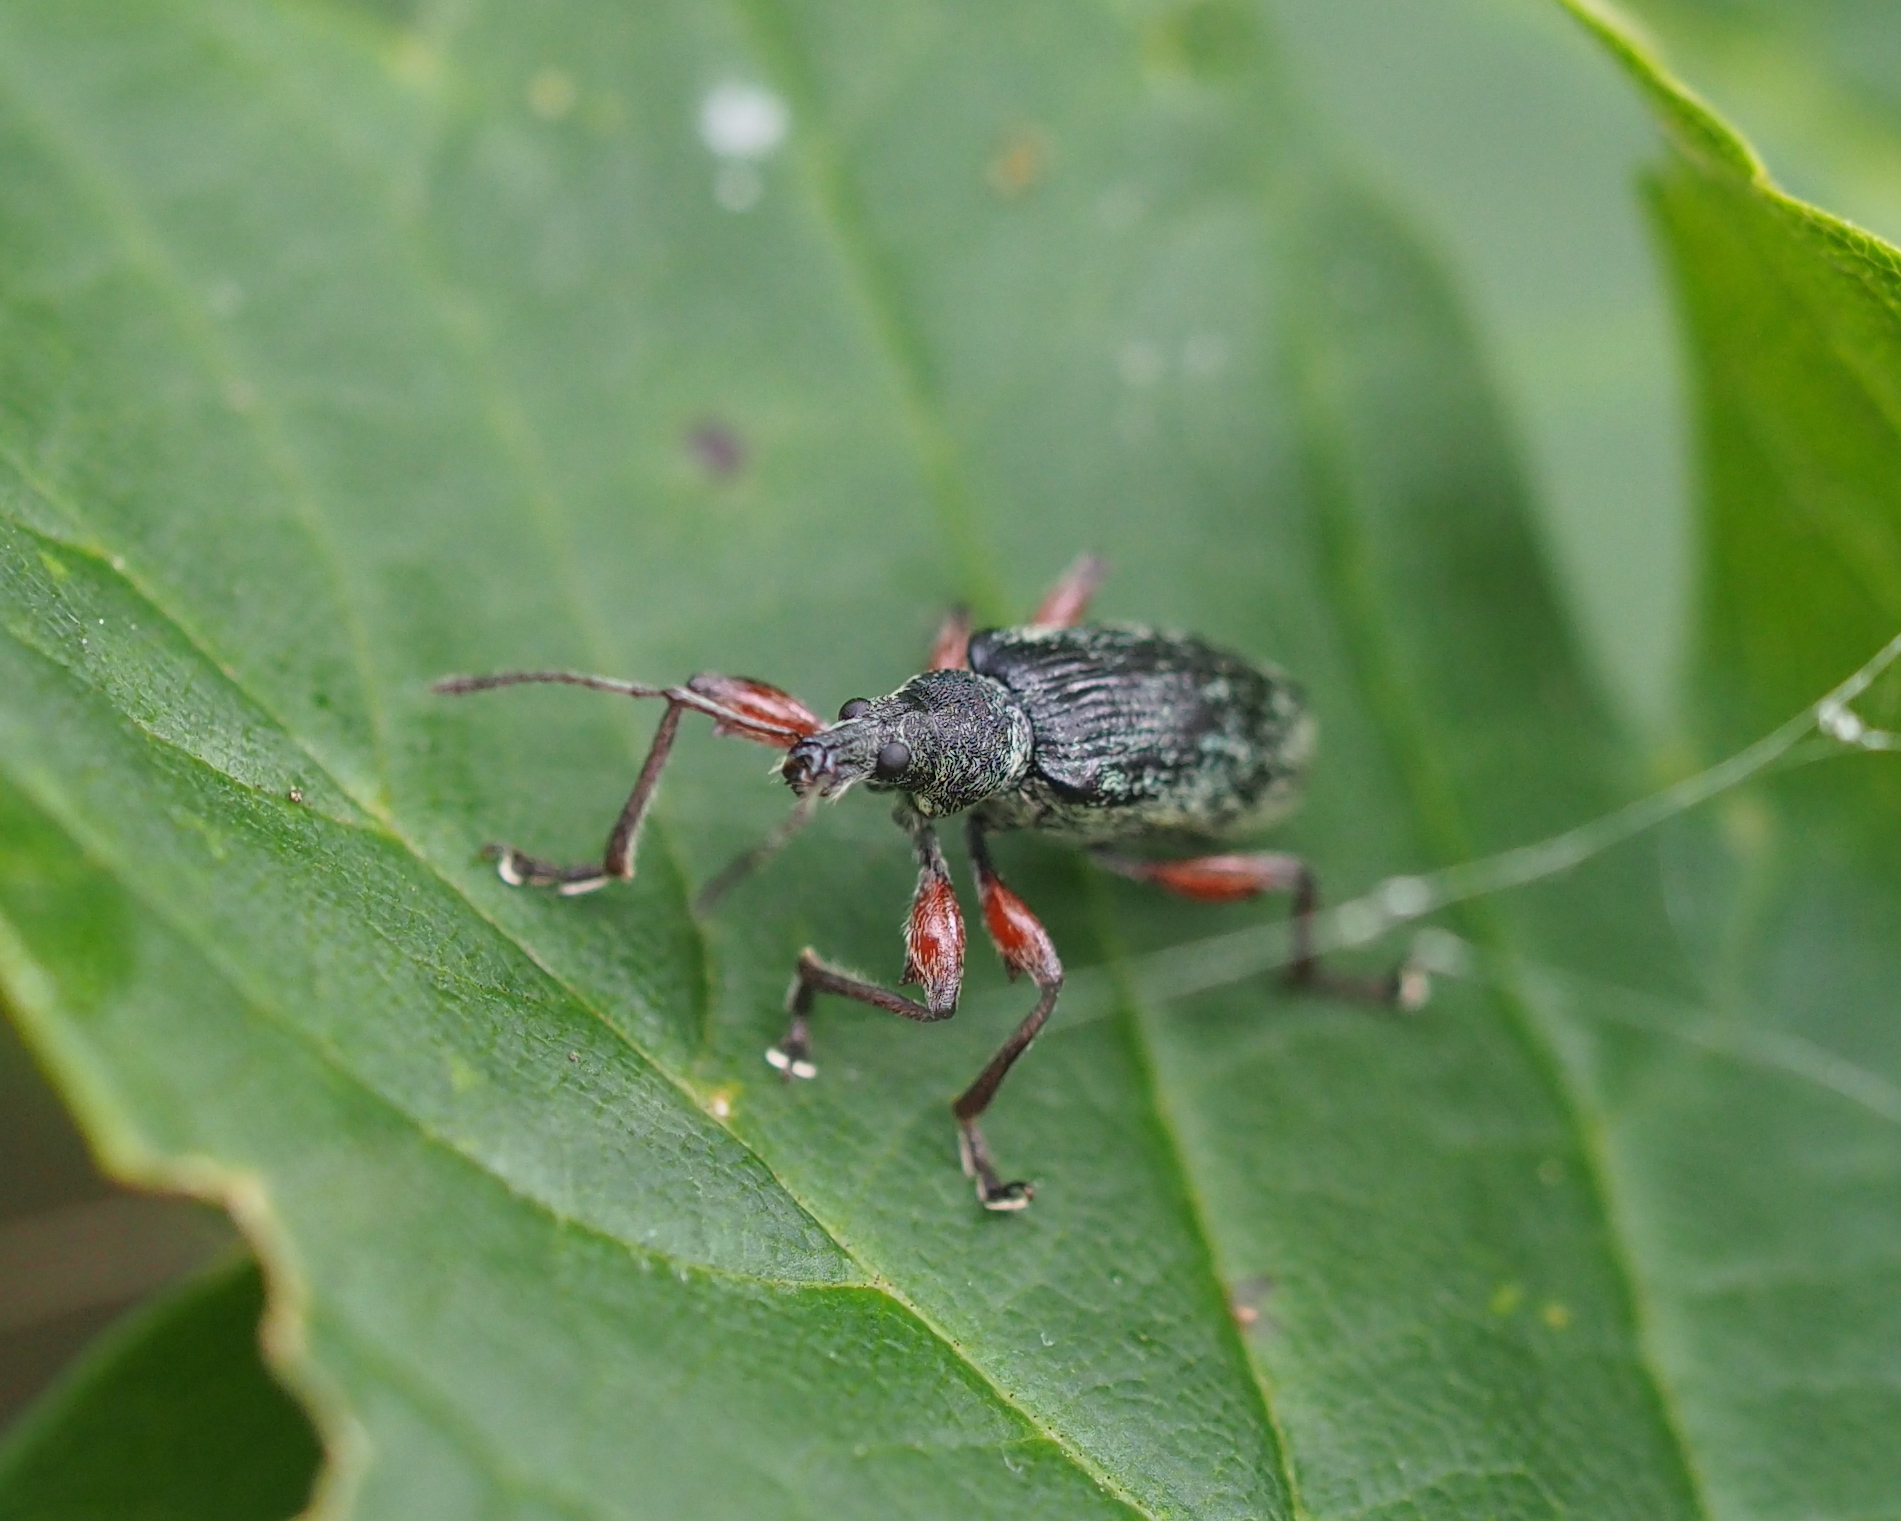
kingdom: Animalia
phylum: Arthropoda
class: Insecta
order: Coleoptera
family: Curculionidae
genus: Phyllobius
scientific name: Phyllobius glaucus
